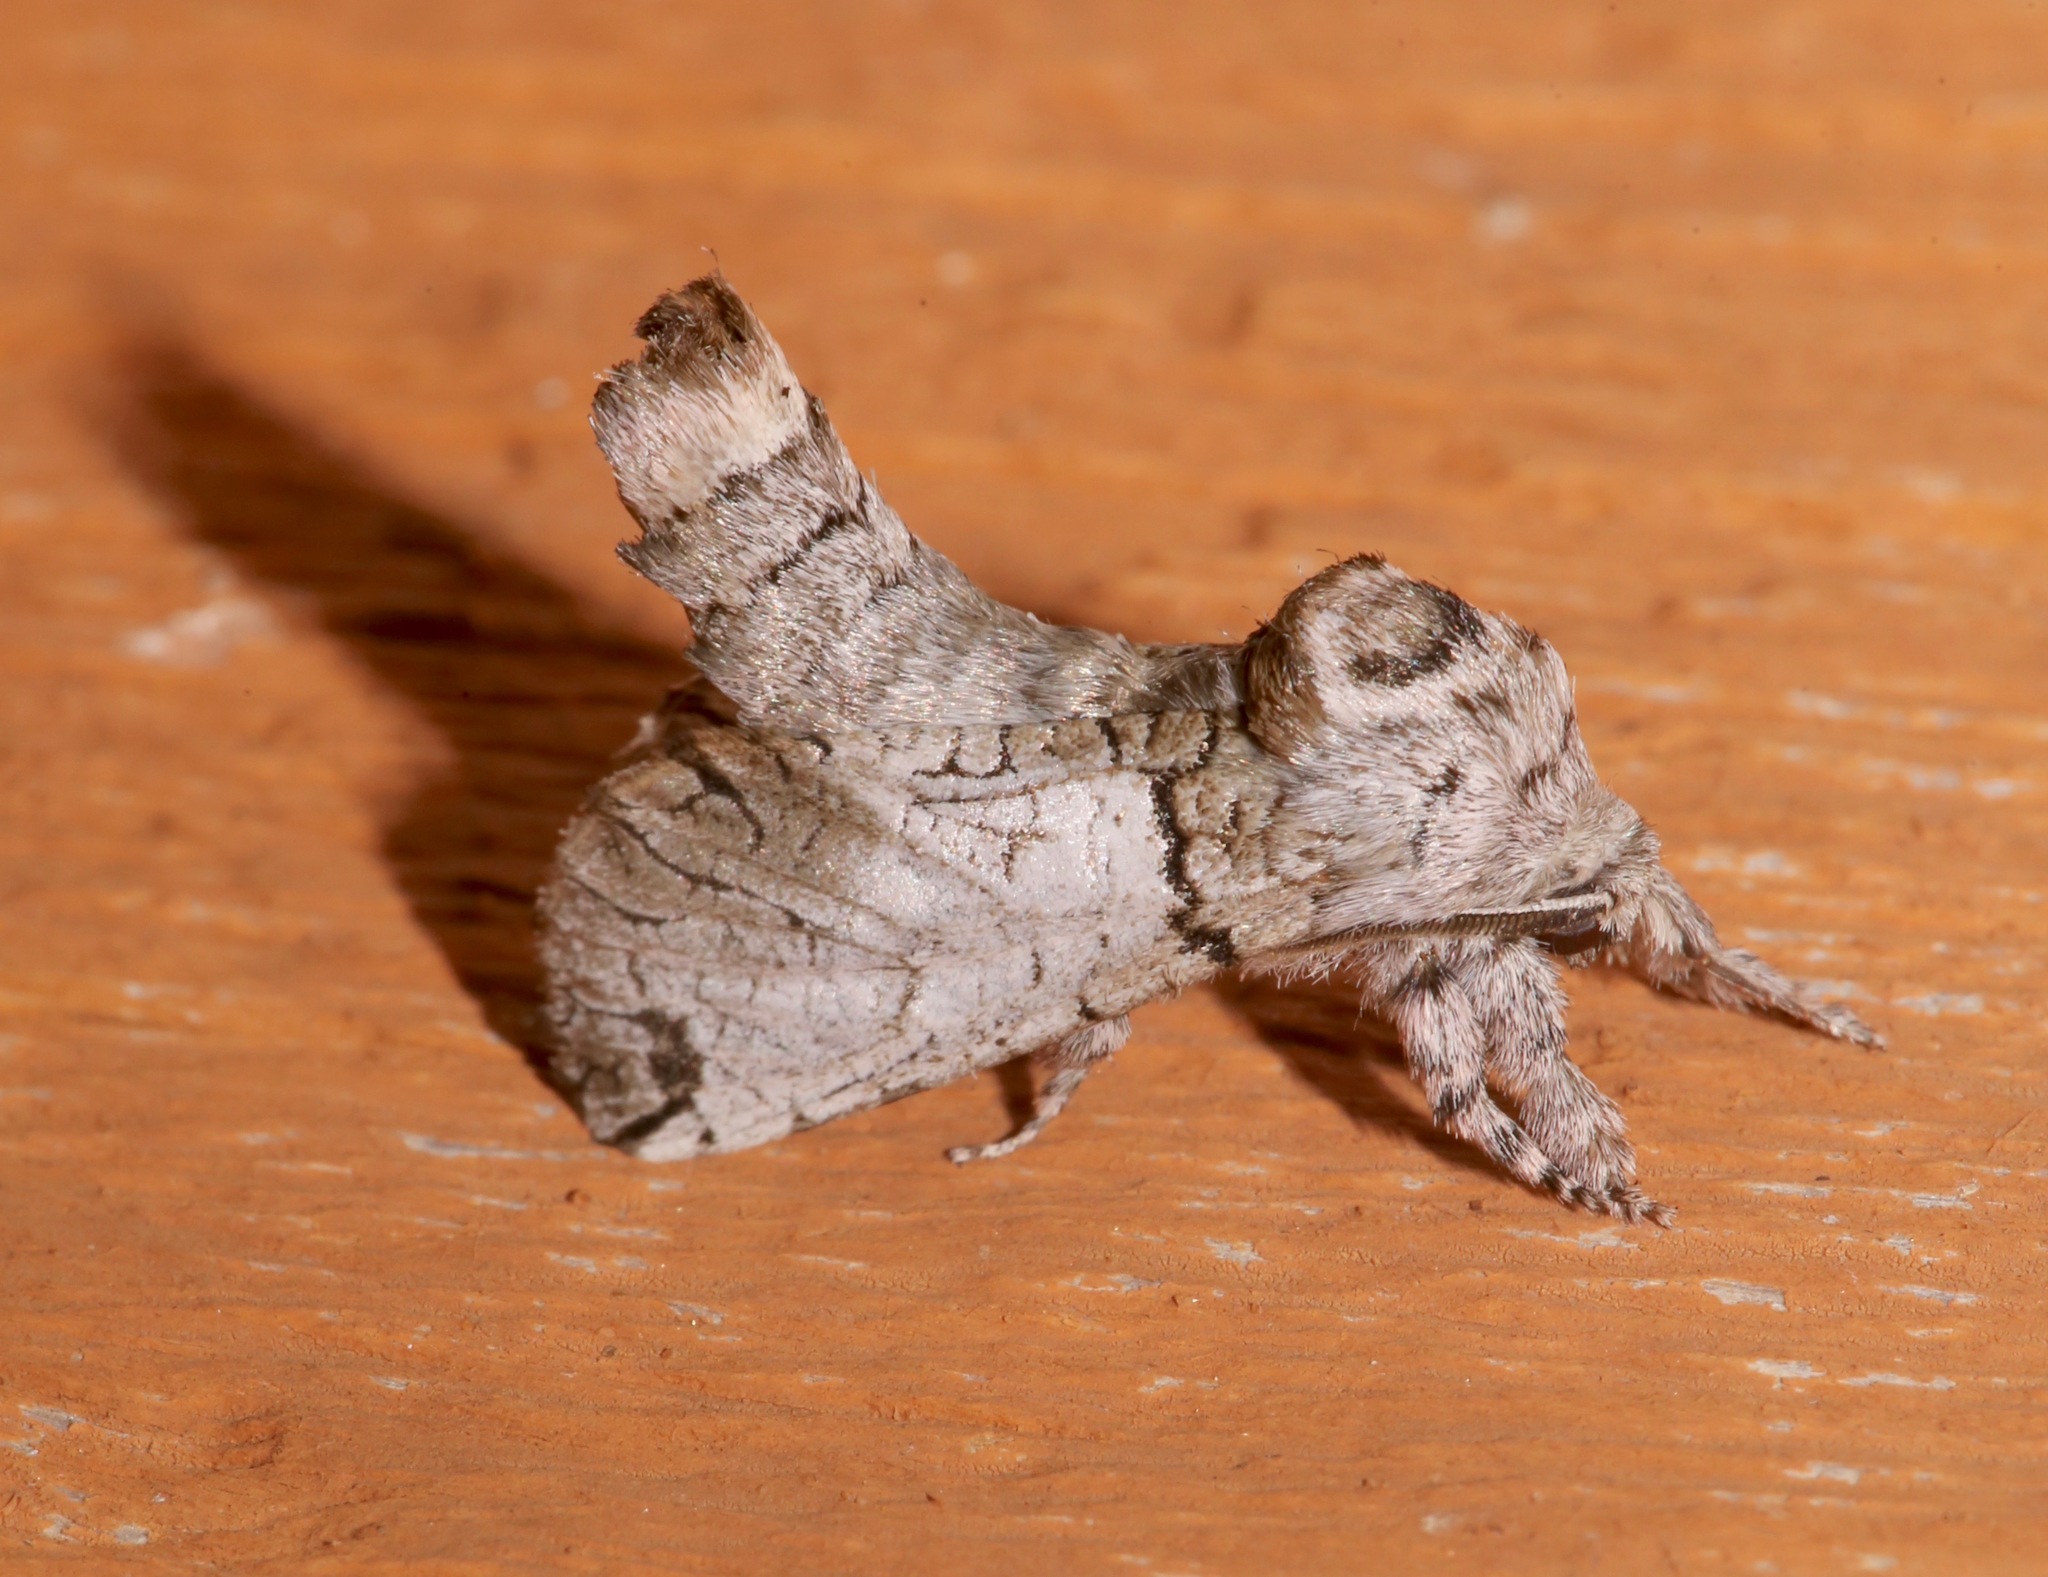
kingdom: Animalia
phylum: Arthropoda
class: Insecta
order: Lepidoptera
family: Cossidae
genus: Inguromorpha
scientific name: Inguromorpha basalis
